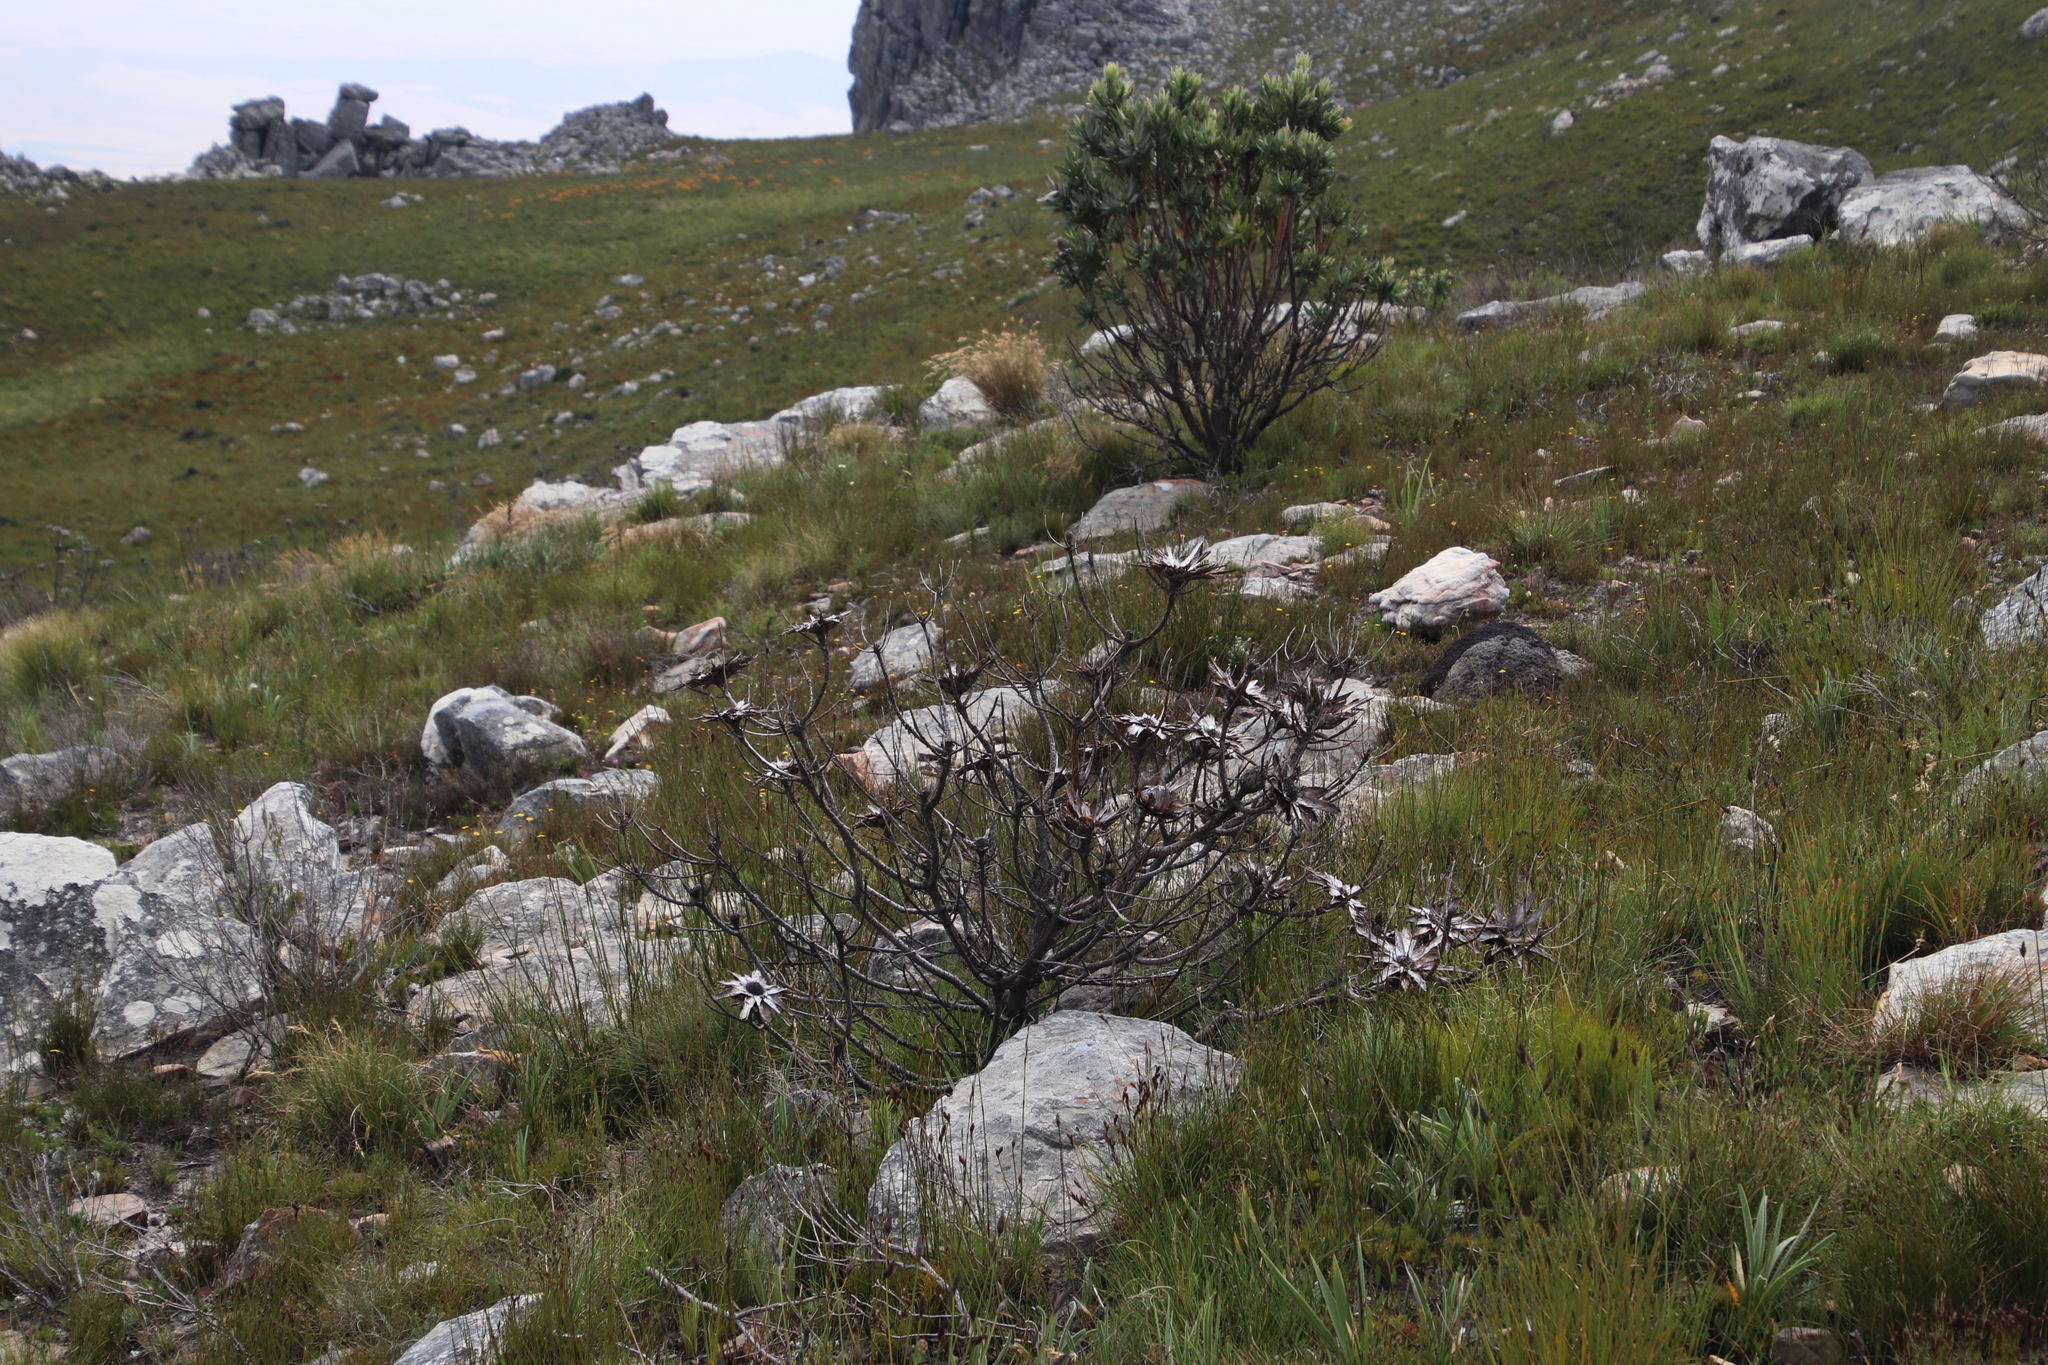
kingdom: Plantae
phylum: Tracheophyta
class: Magnoliopsida
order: Proteales
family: Proteaceae
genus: Protea
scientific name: Protea repens
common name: Sugarbush
